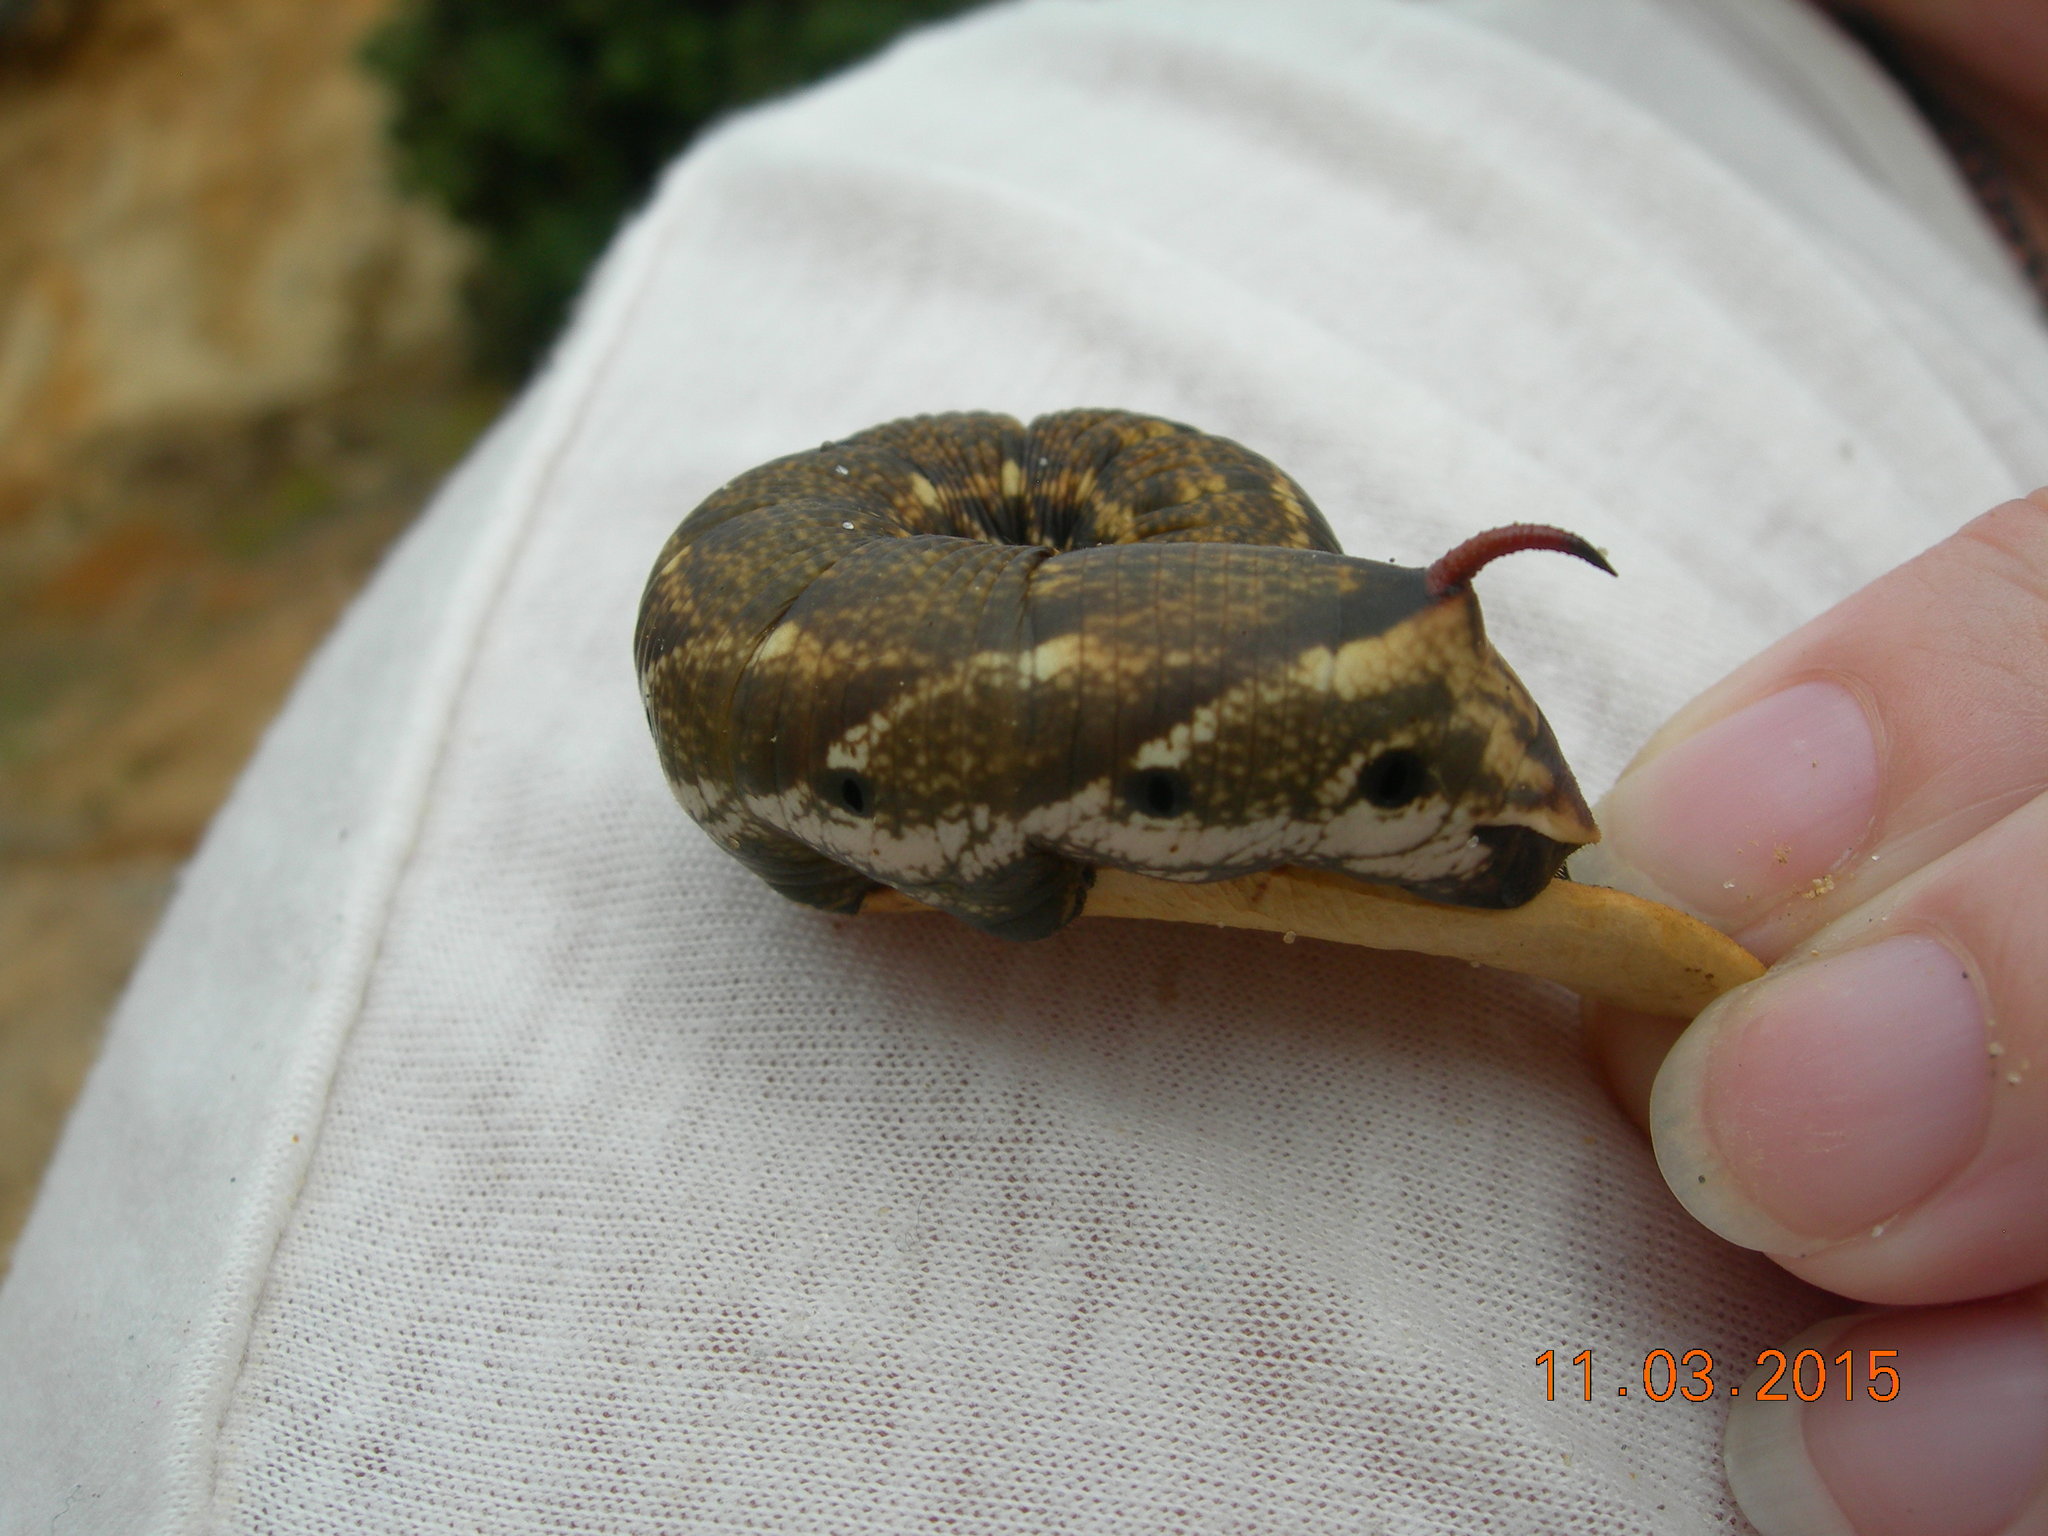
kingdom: Animalia
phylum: Arthropoda
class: Insecta
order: Lepidoptera
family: Sphingidae
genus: Agrius
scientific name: Agrius convolvuli
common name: Convolvulus hawkmoth
